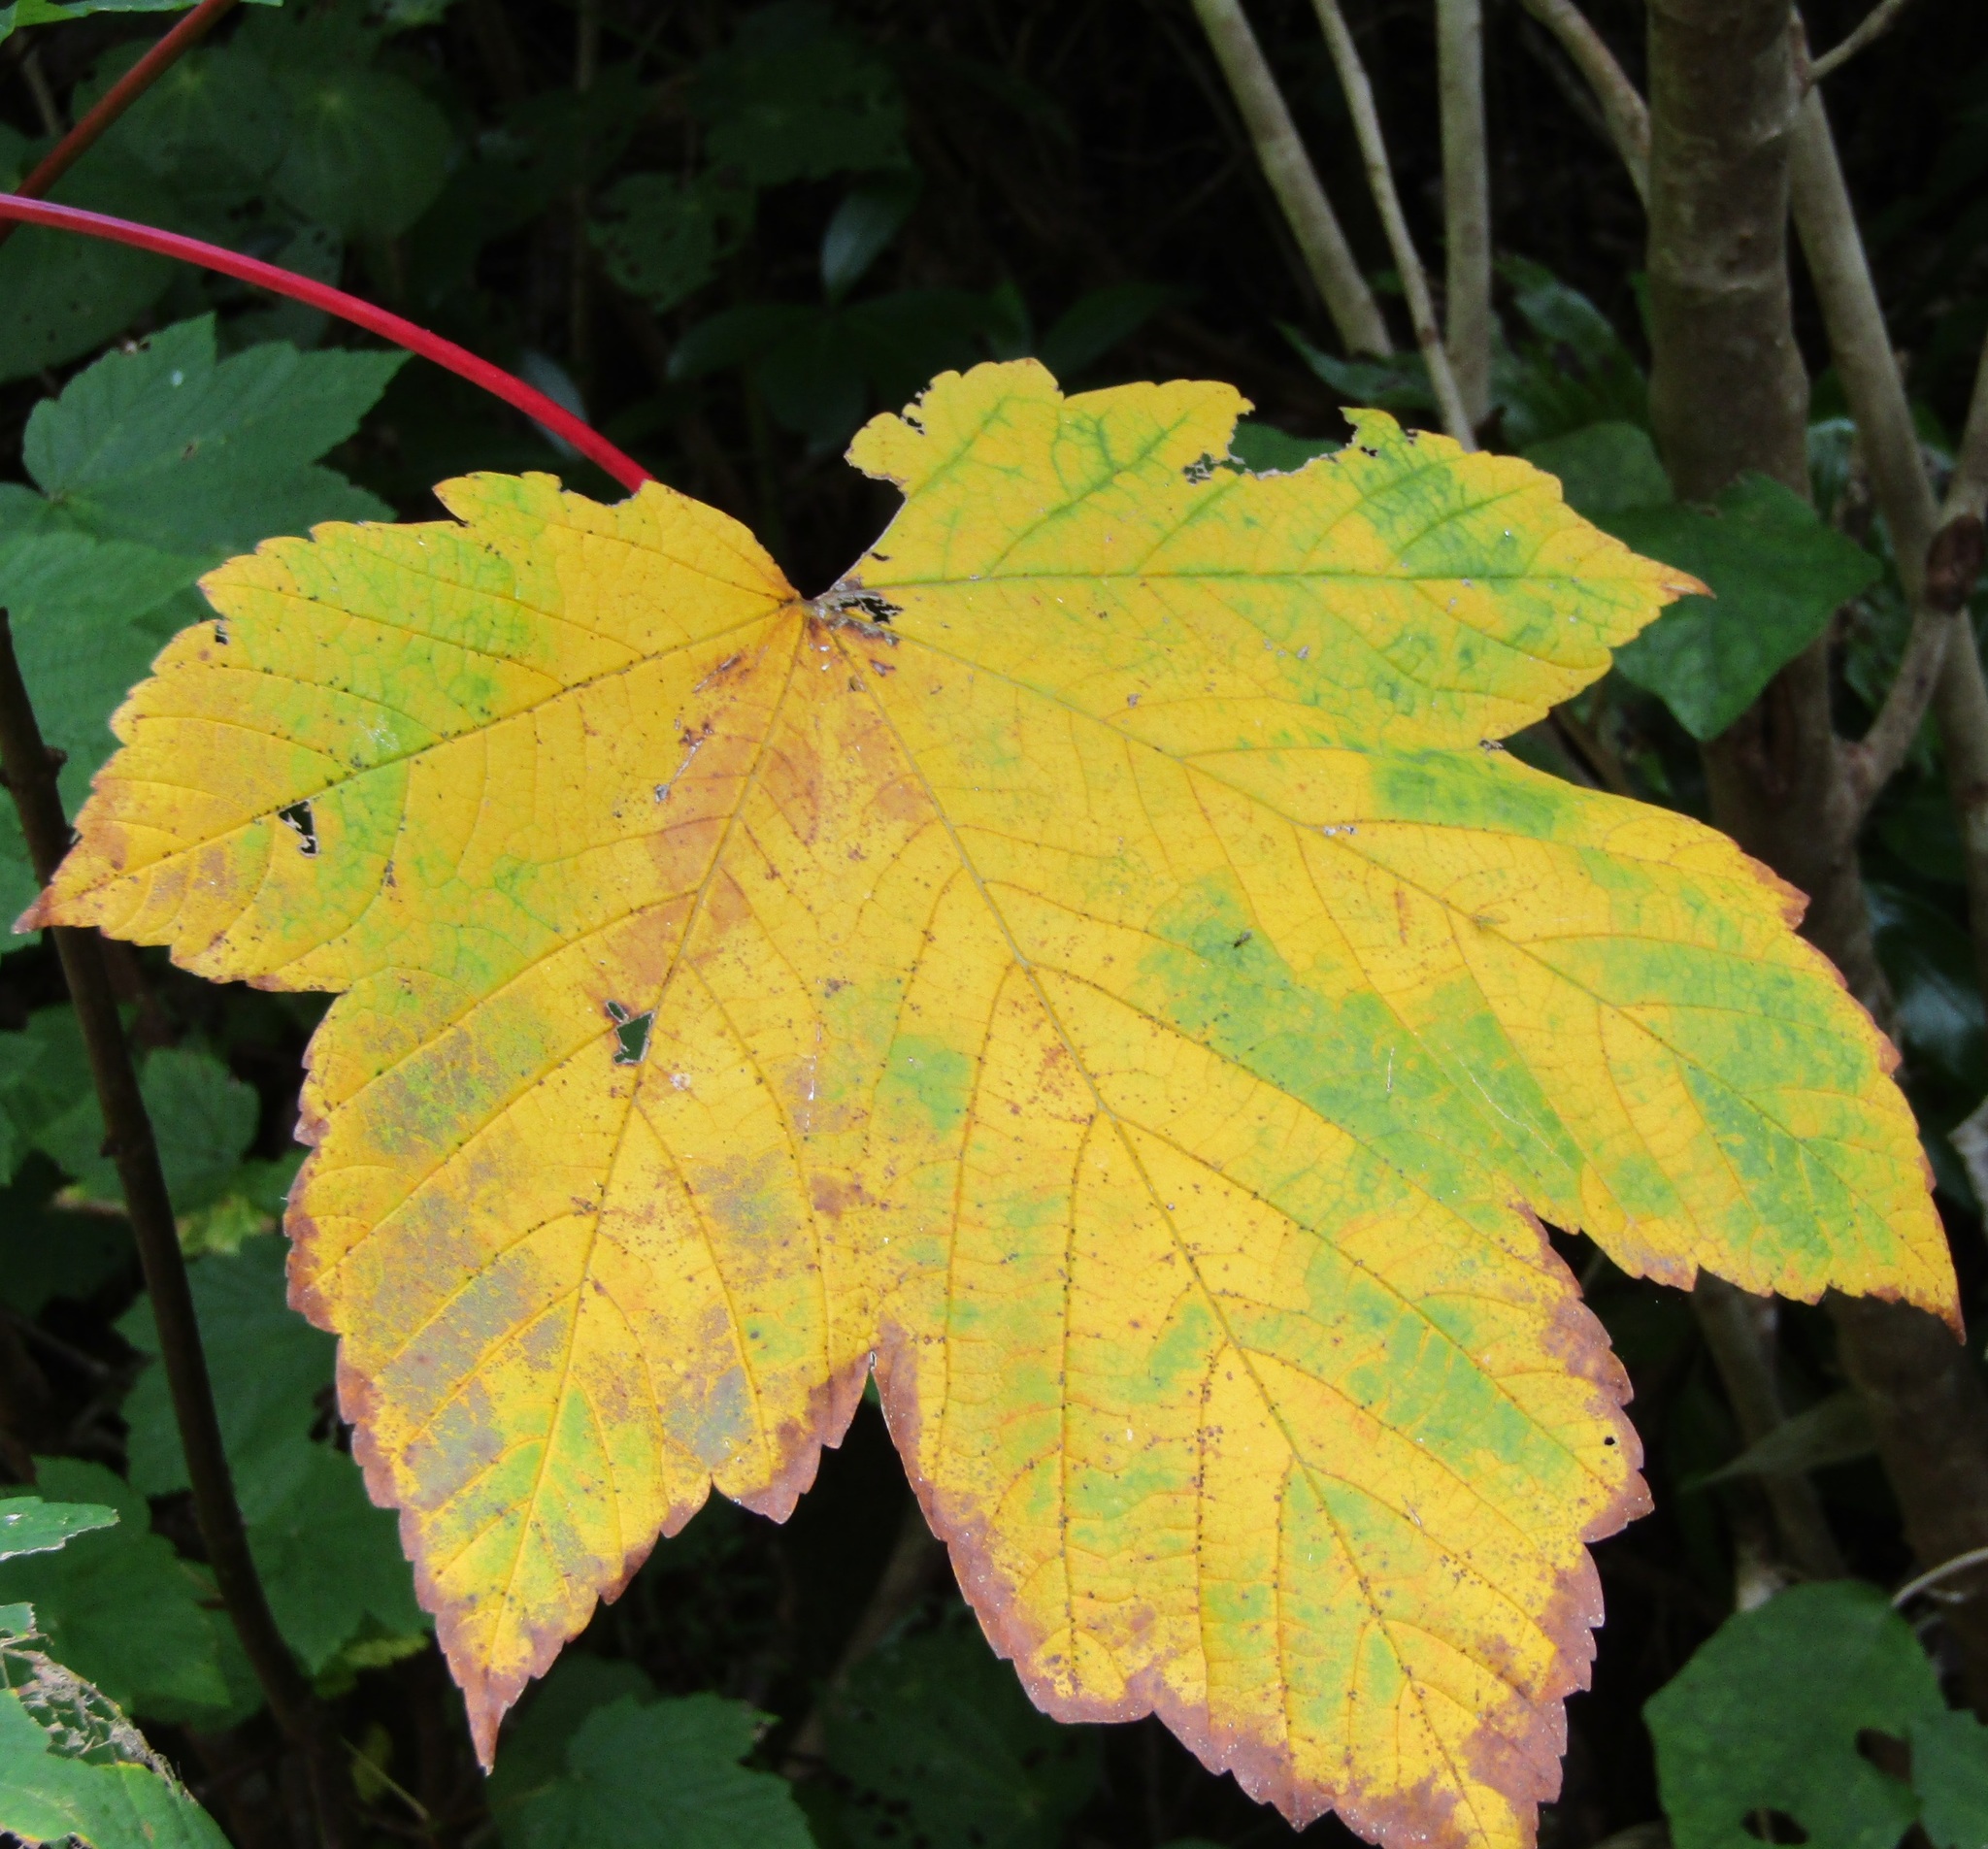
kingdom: Plantae
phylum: Tracheophyta
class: Magnoliopsida
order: Sapindales
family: Sapindaceae
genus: Acer
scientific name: Acer pseudoplatanus
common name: Sycamore
